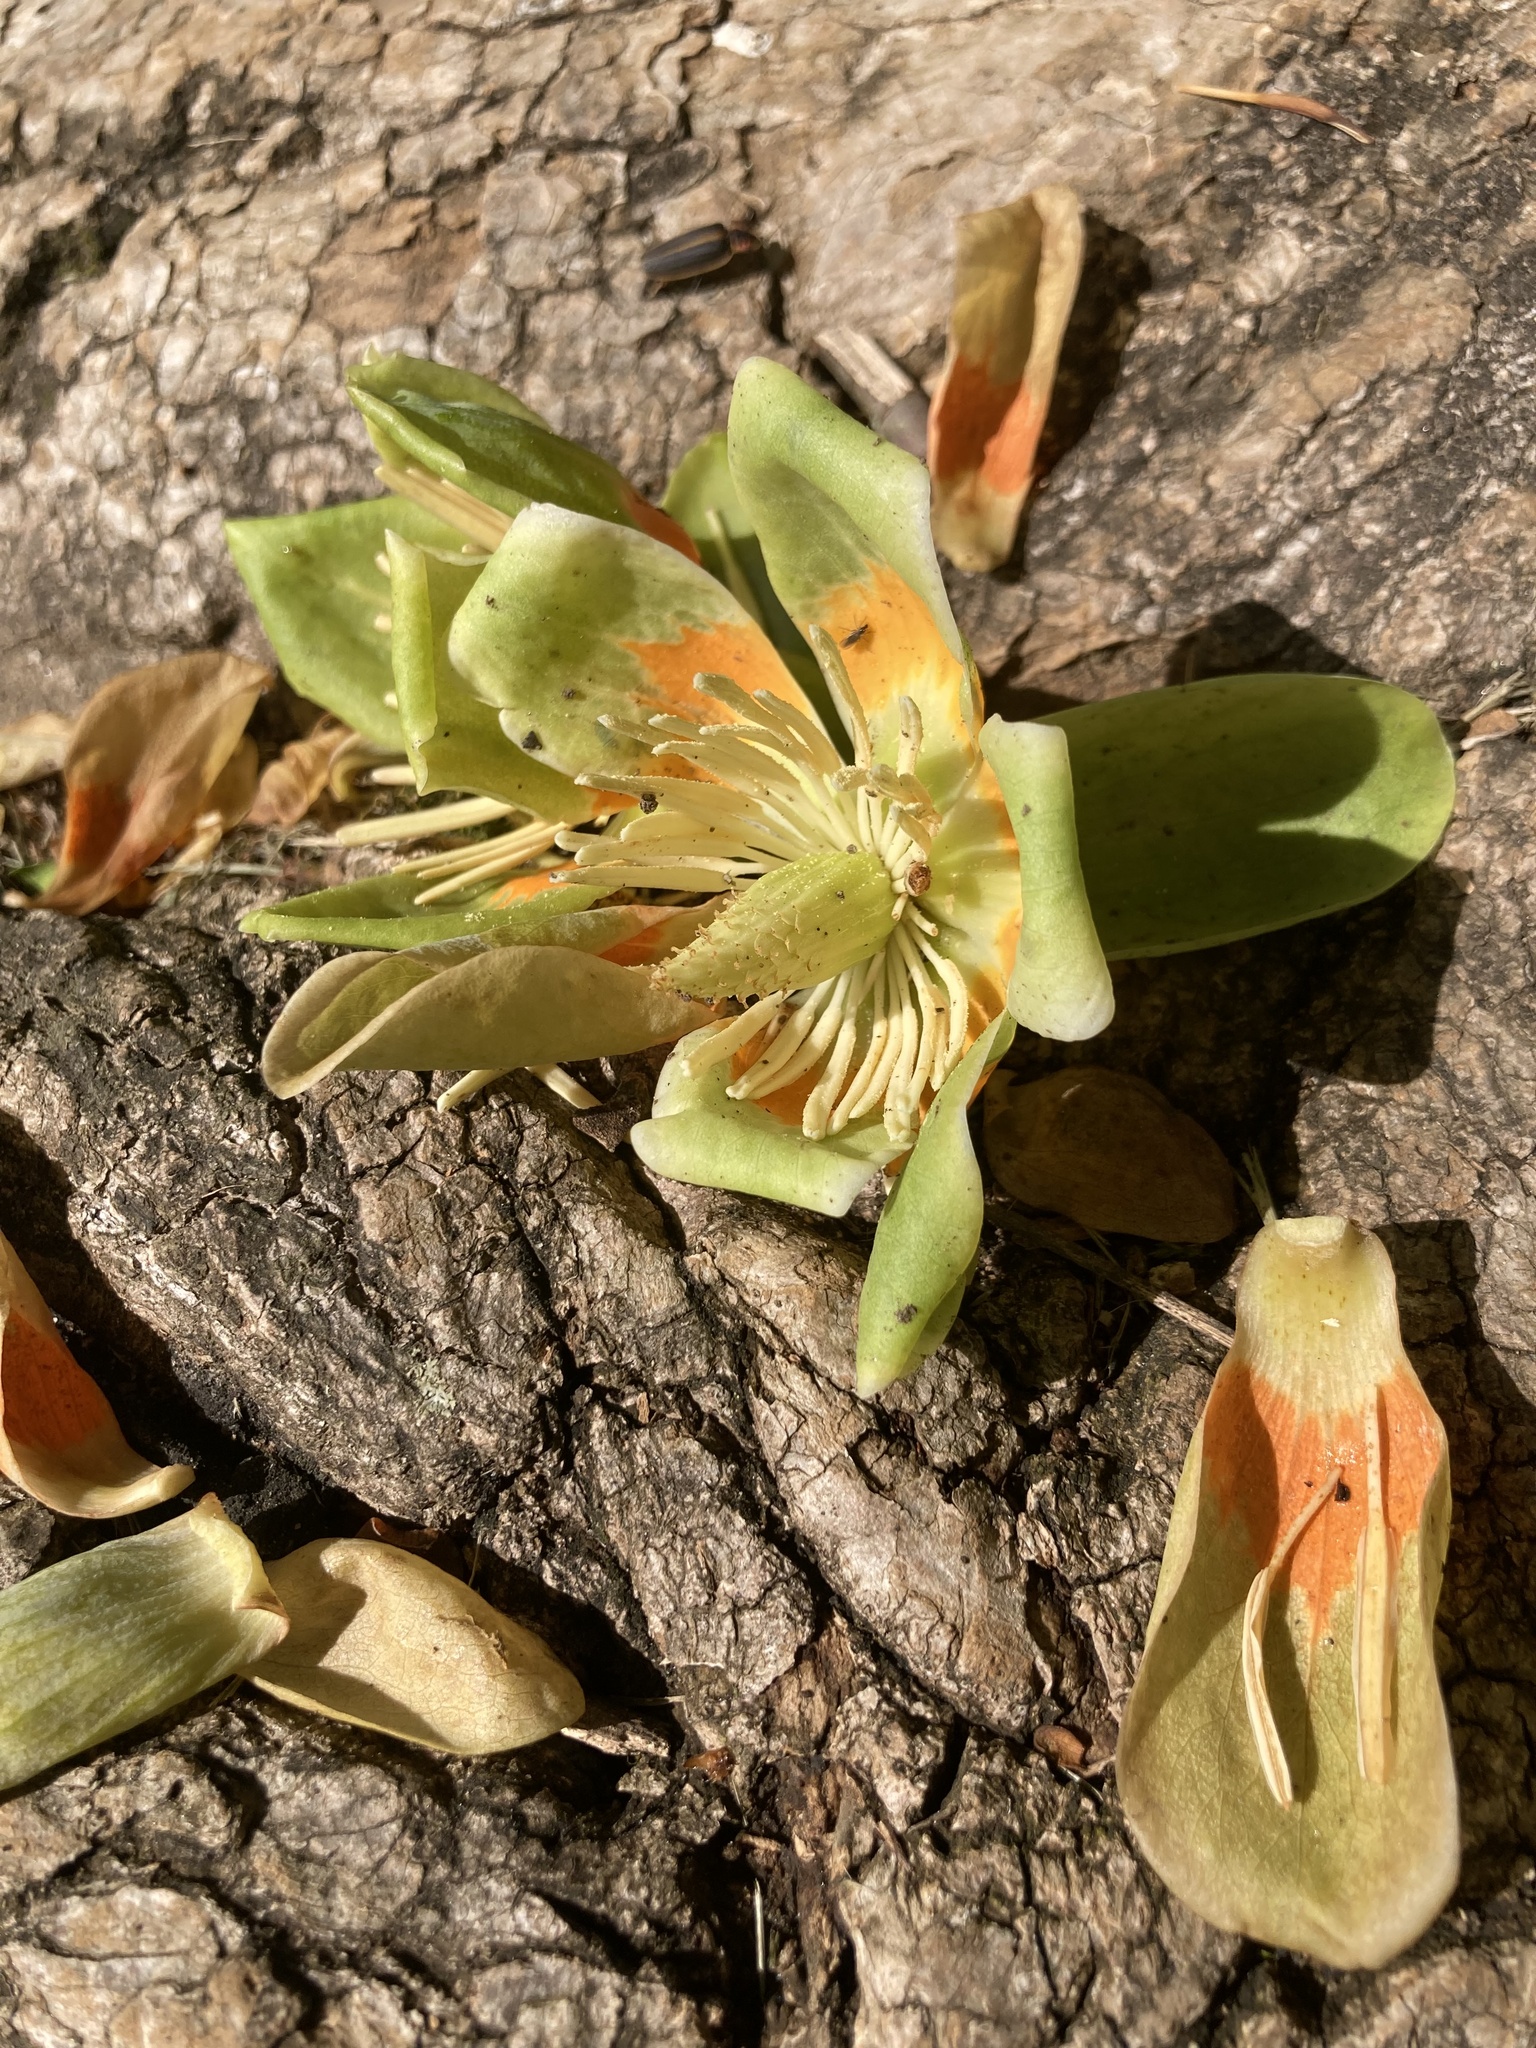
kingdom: Plantae
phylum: Tracheophyta
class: Magnoliopsida
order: Magnoliales
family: Magnoliaceae
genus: Liriodendron
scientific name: Liriodendron tulipifera
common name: Tulip tree
